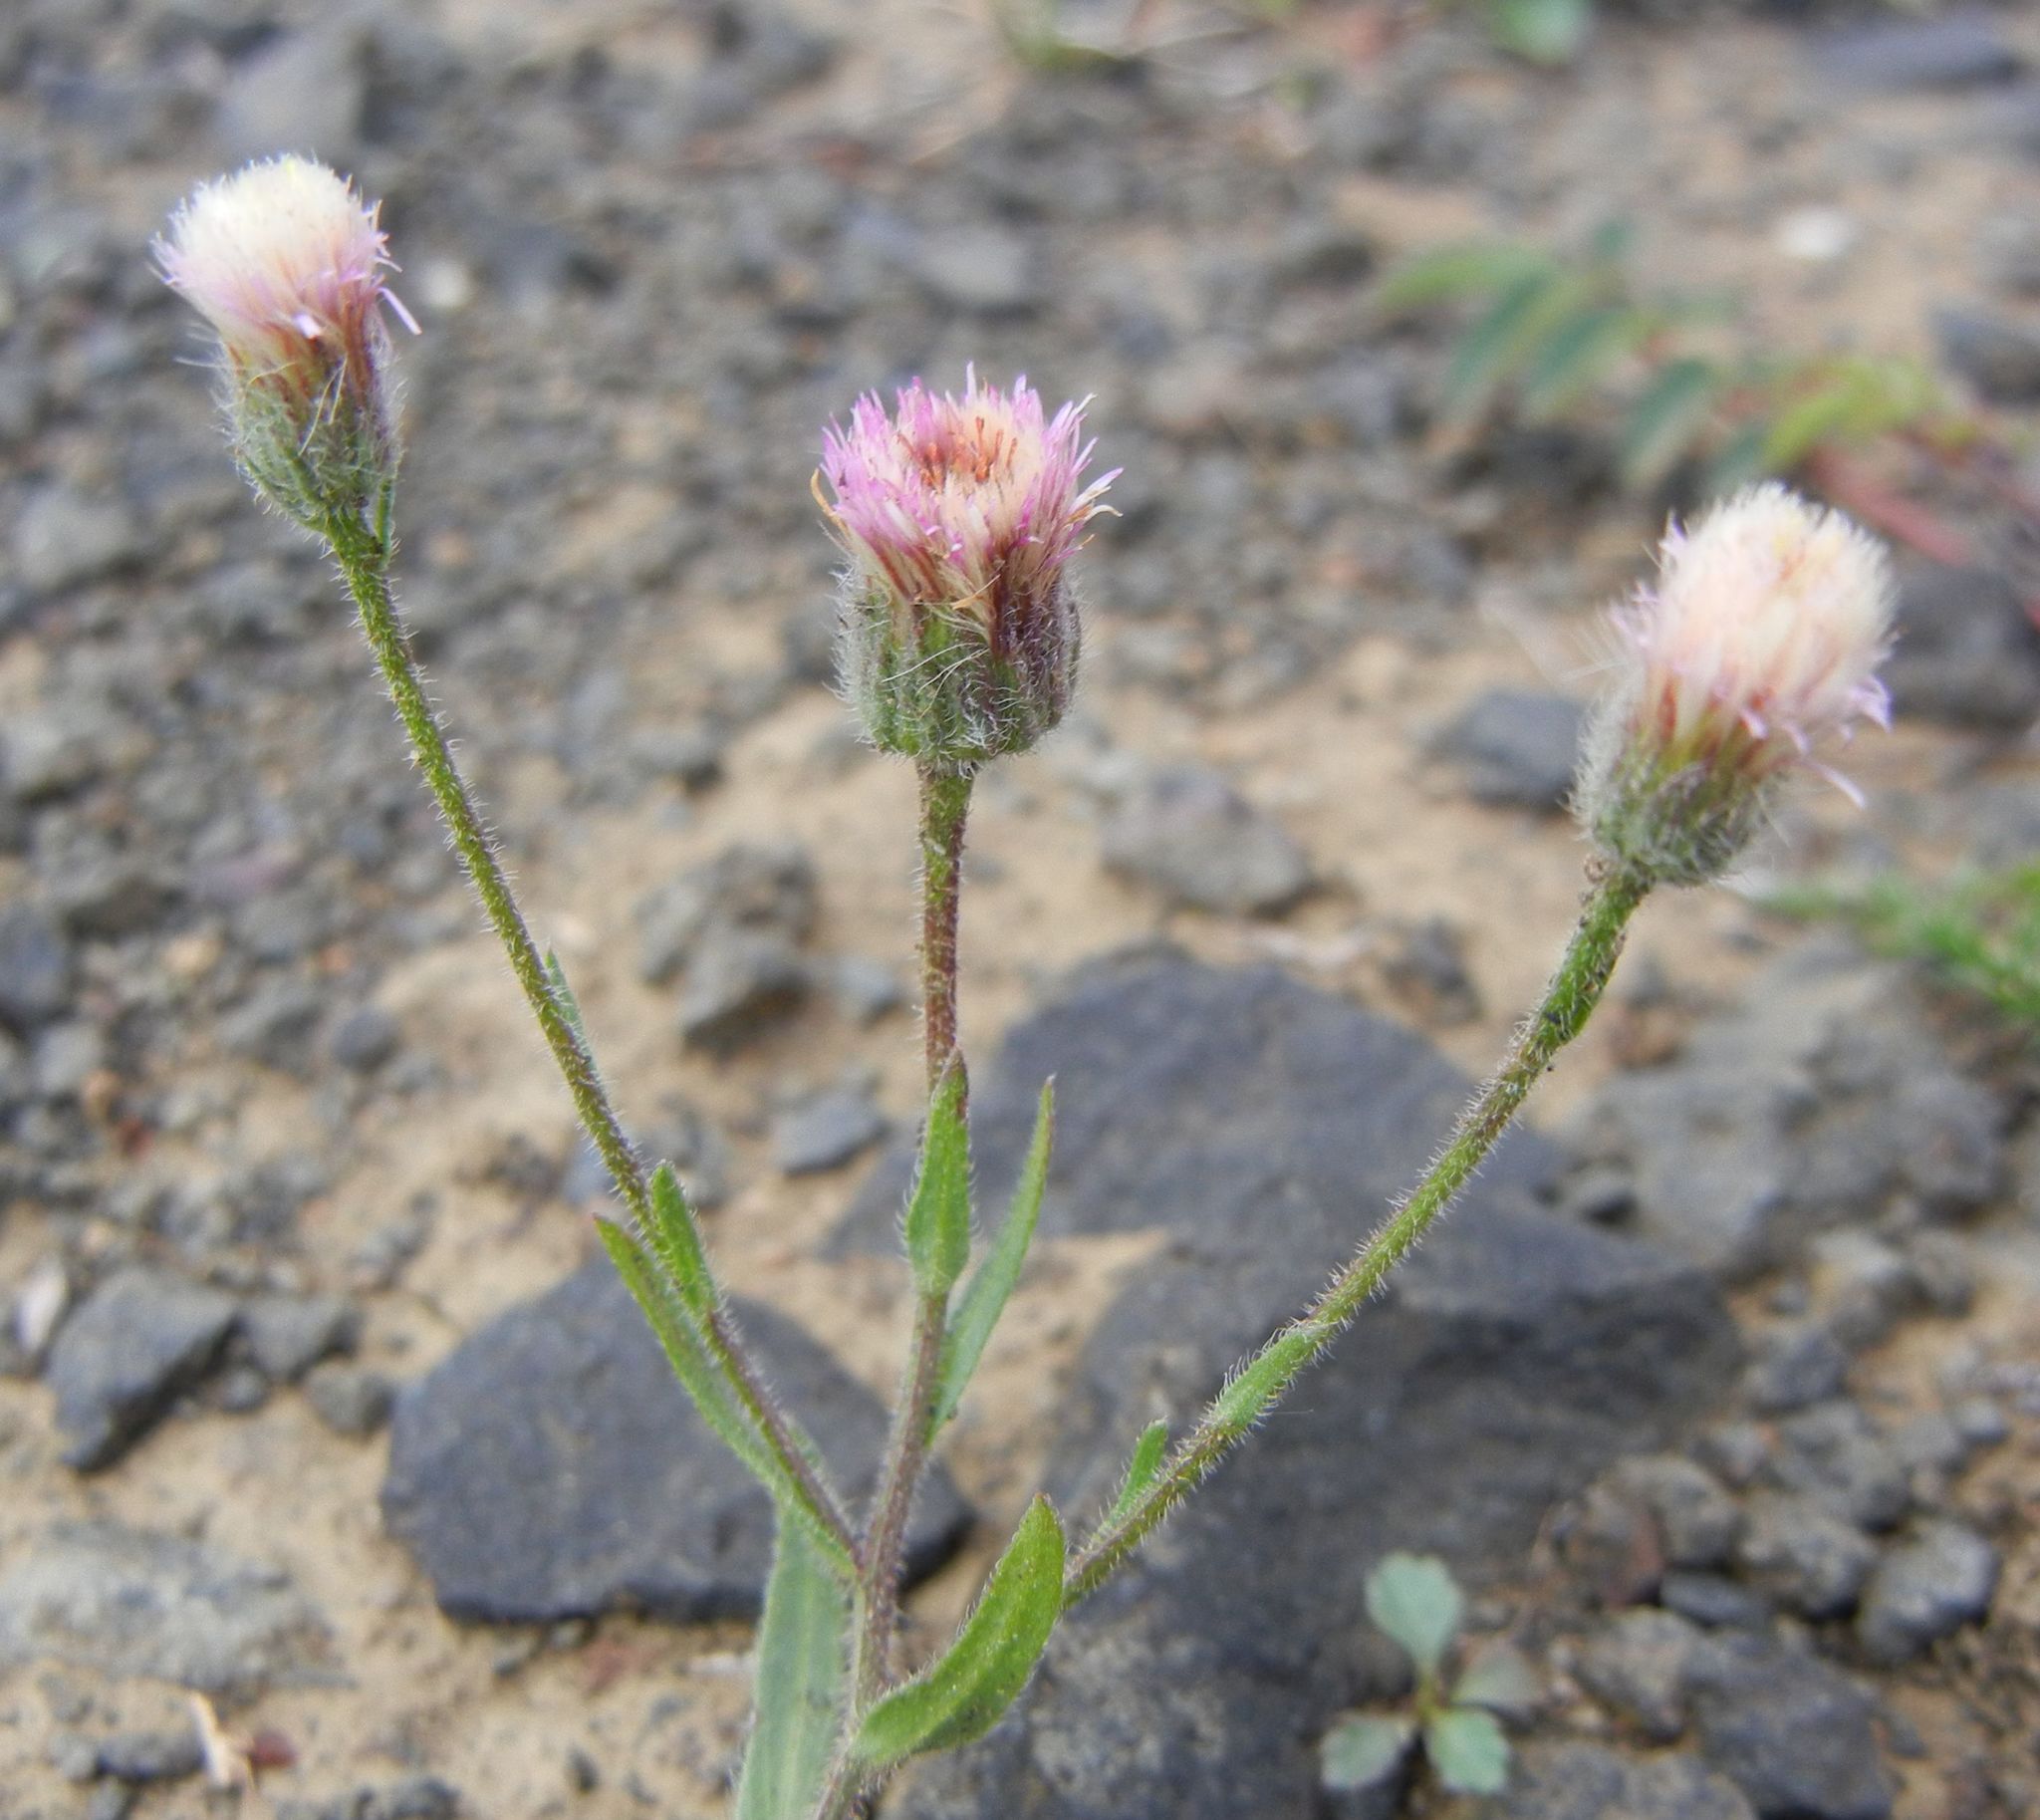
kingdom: Plantae
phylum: Tracheophyta
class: Magnoliopsida
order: Asterales
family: Asteraceae
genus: Erigeron
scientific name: Erigeron acris
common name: Blue fleabane
